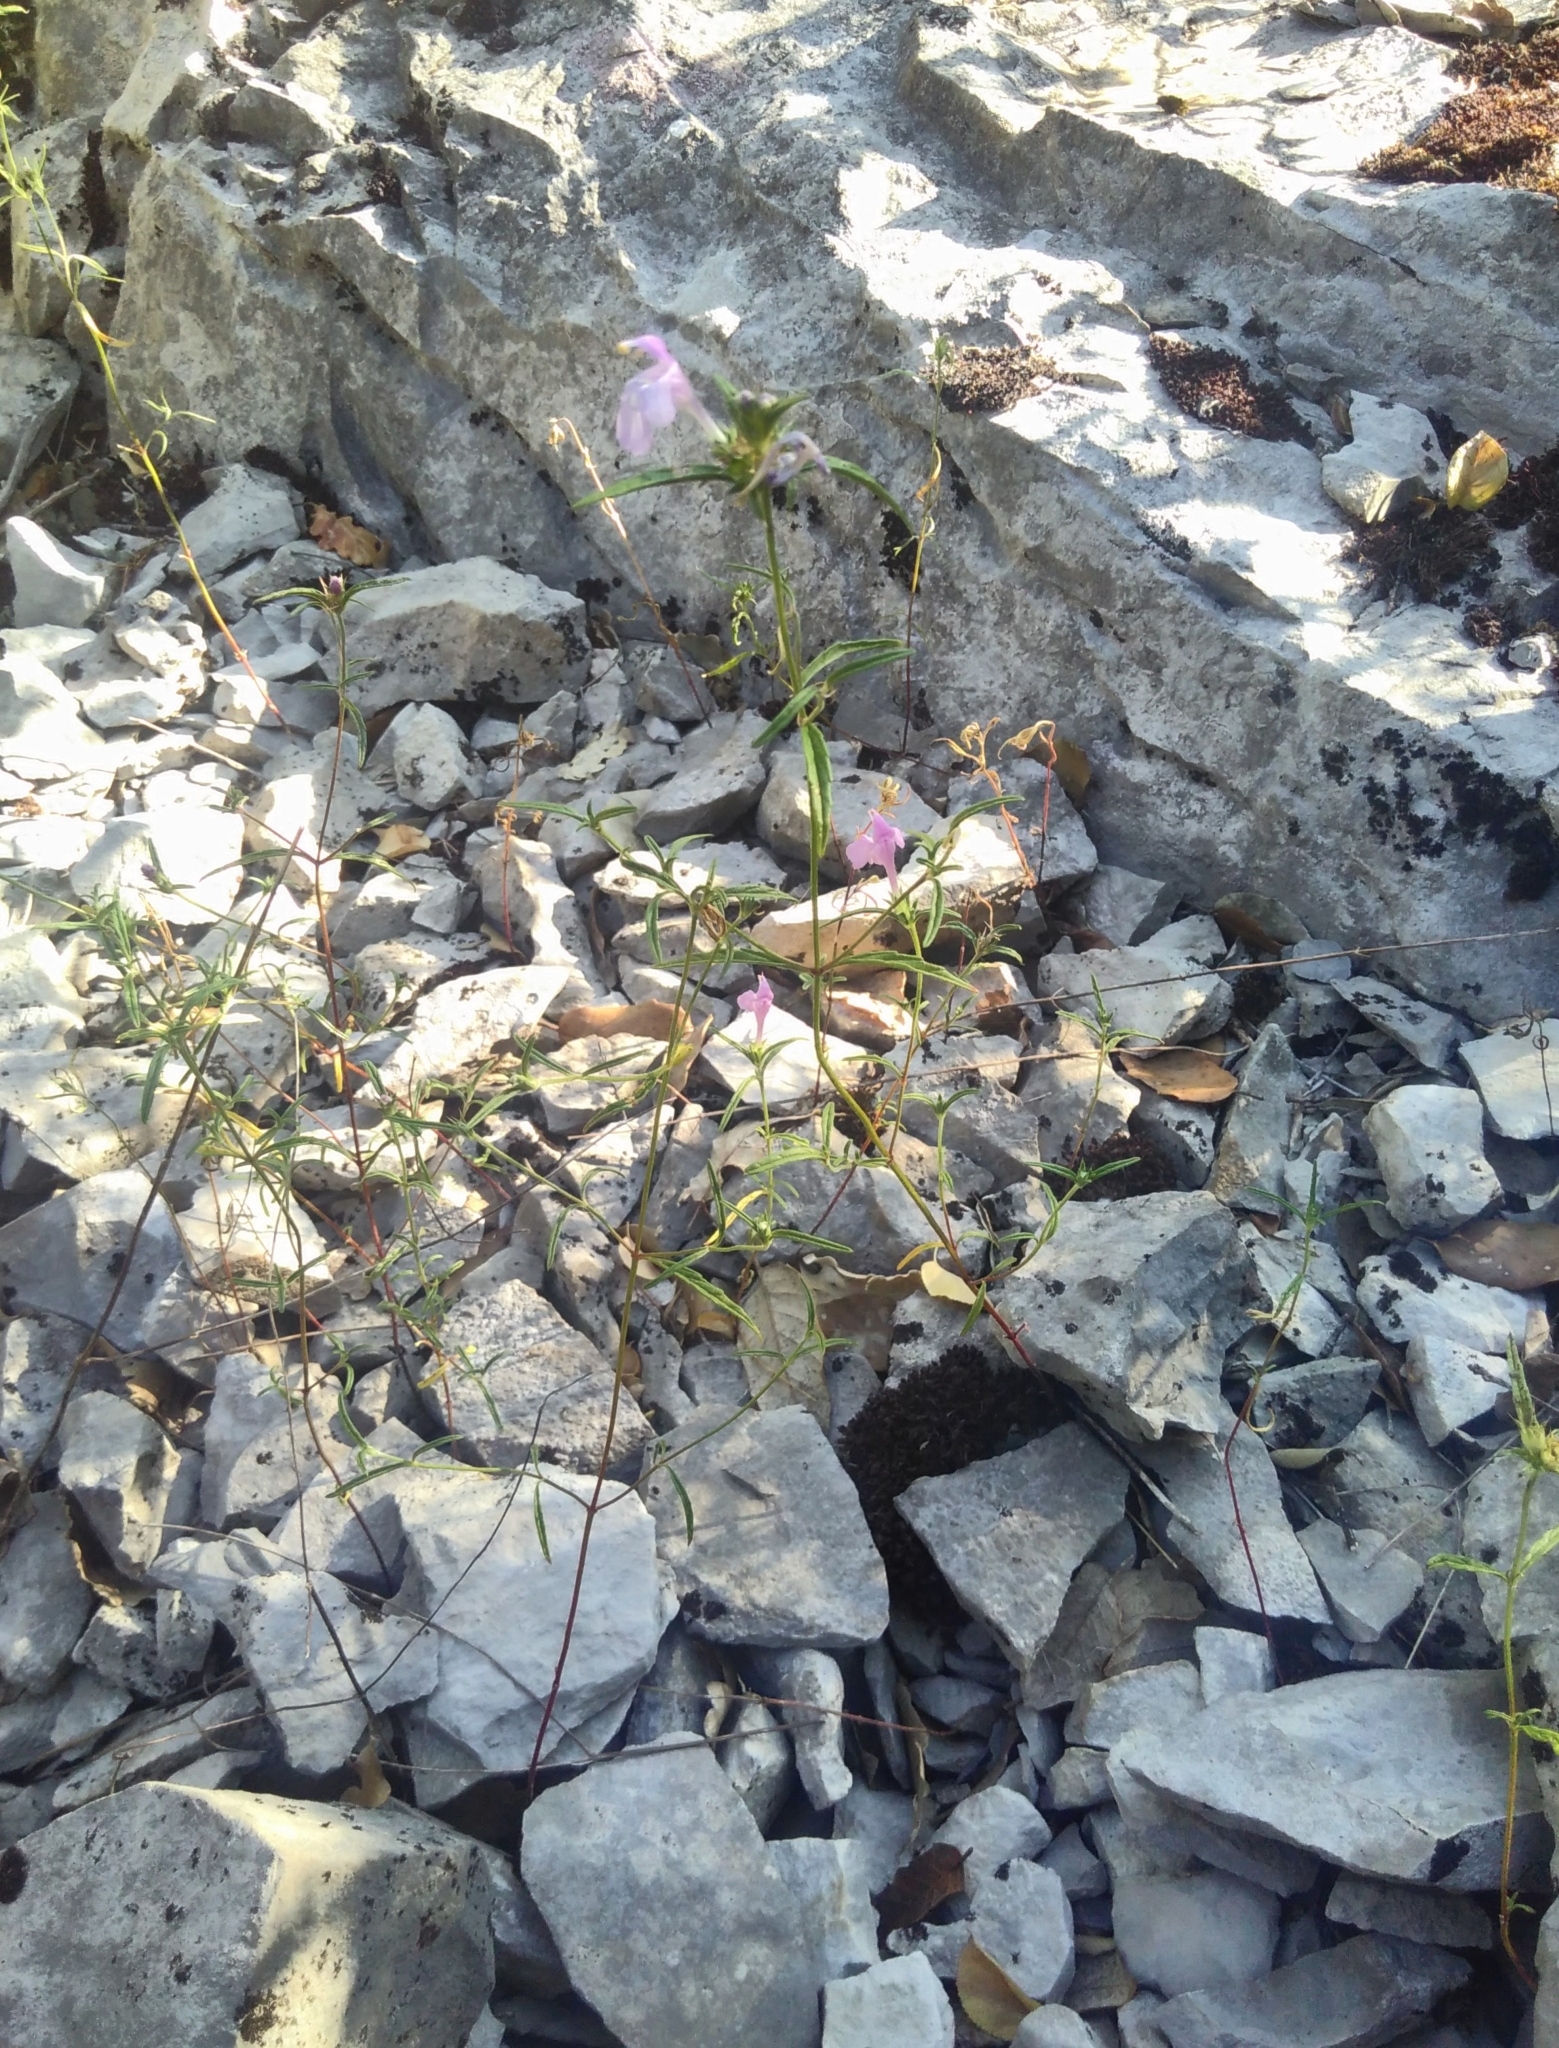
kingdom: Plantae
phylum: Tracheophyta
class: Magnoliopsida
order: Lamiales
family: Lamiaceae
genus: Galeopsis
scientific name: Galeopsis angustifolia
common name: Red hemp-nettle
